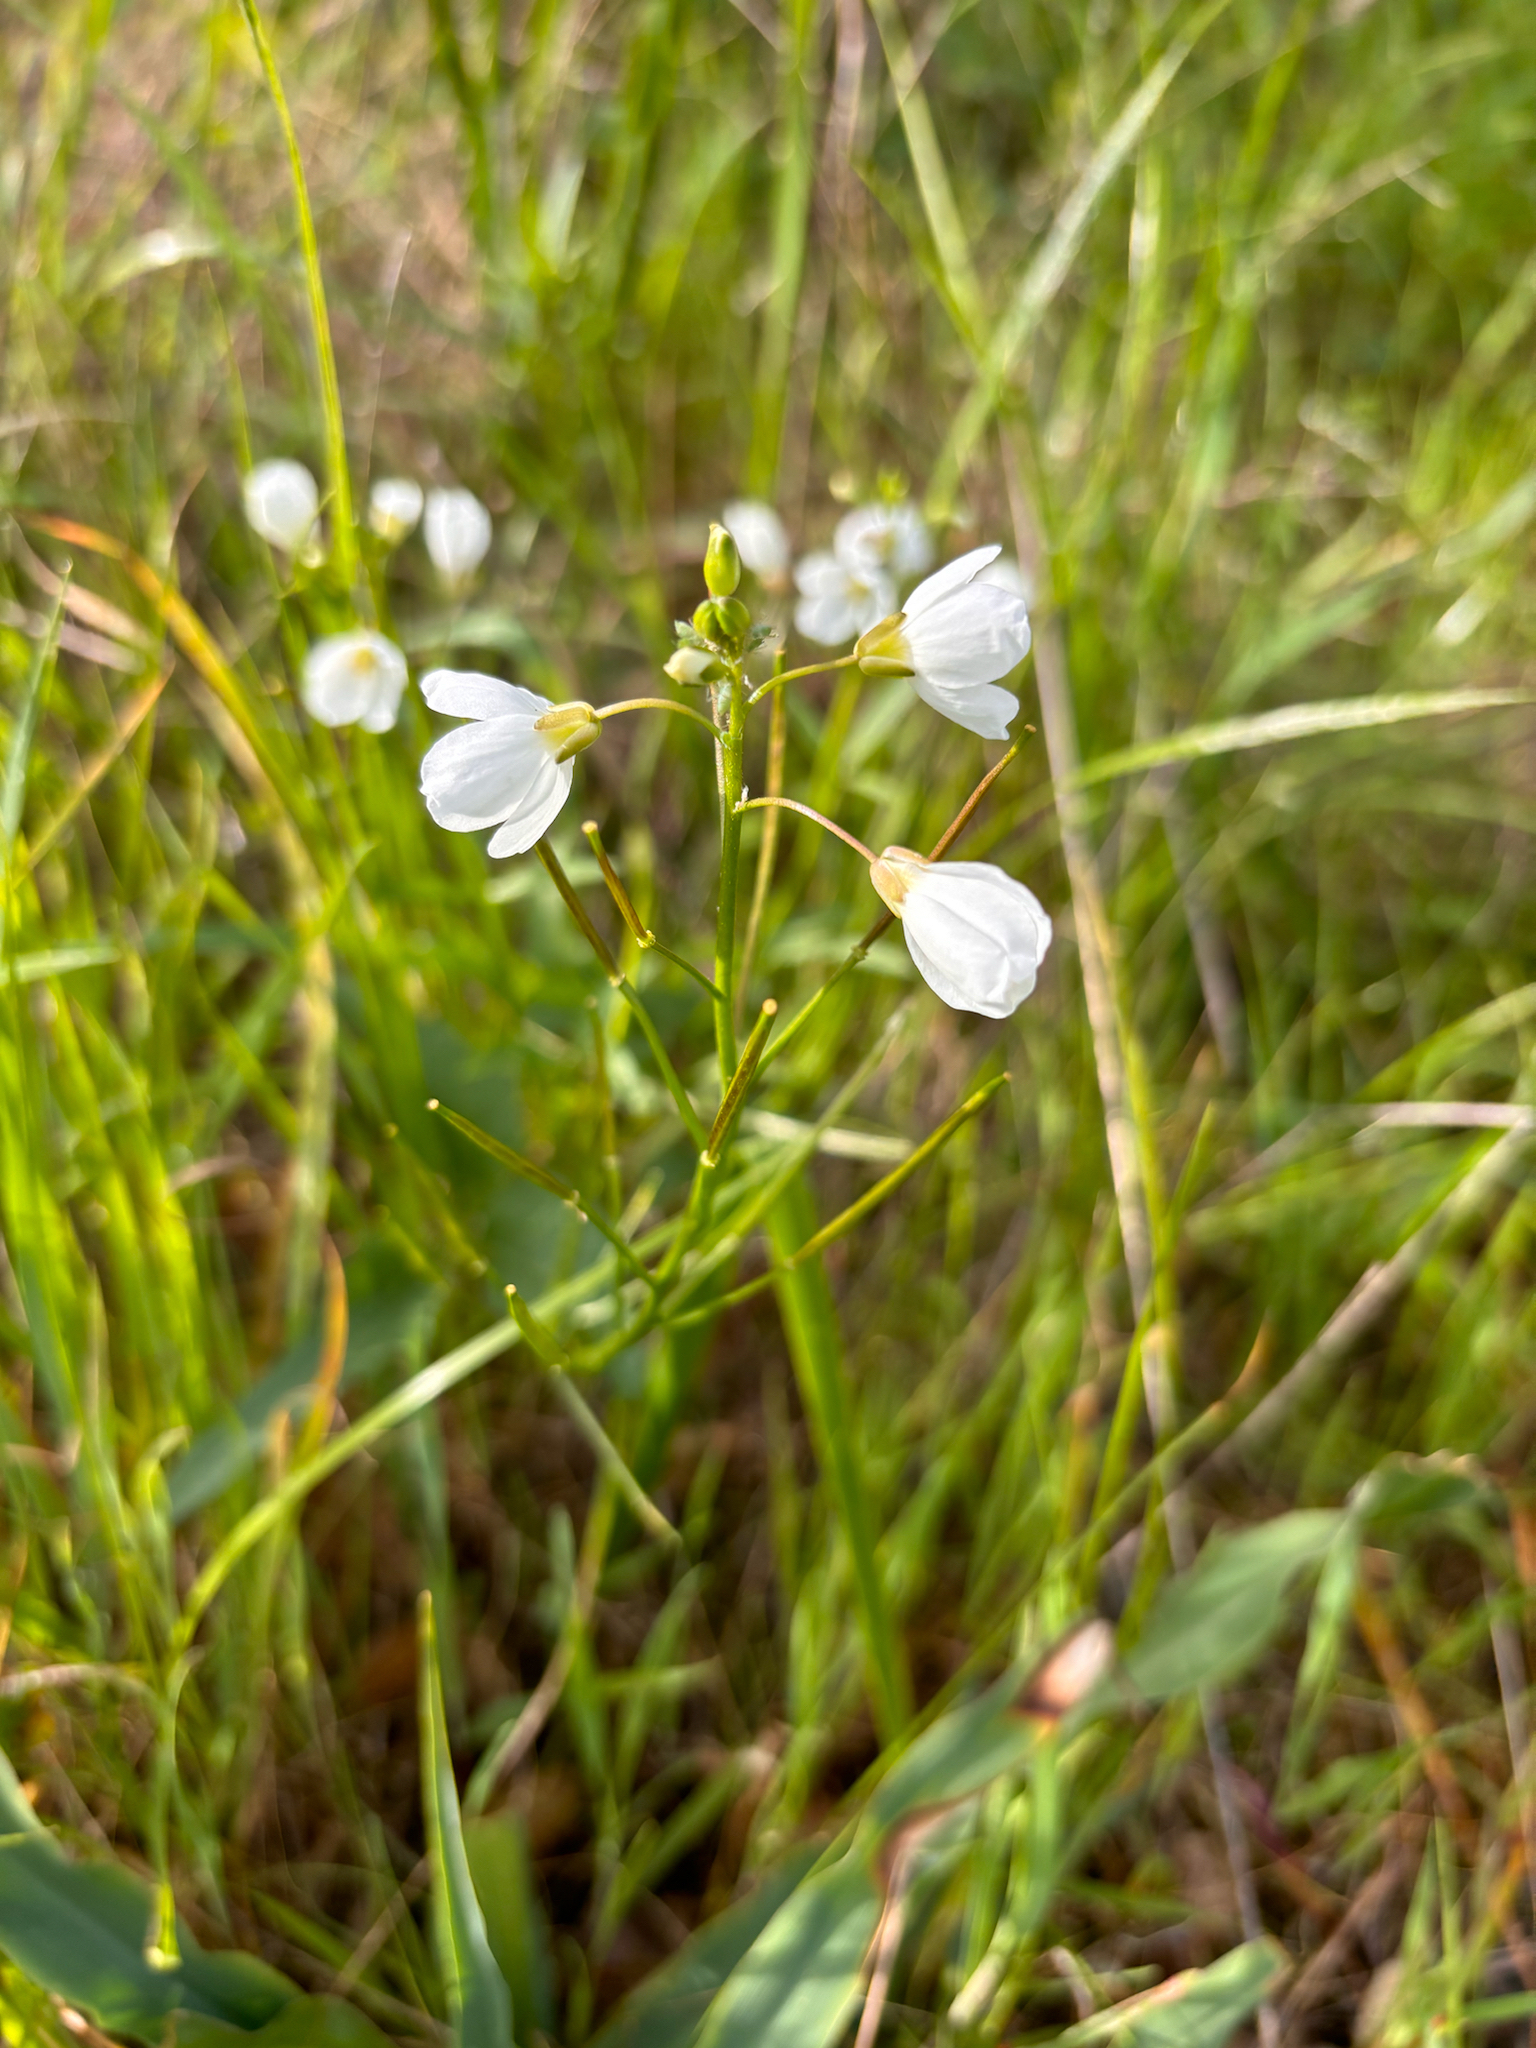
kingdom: Plantae
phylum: Tracheophyta
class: Magnoliopsida
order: Brassicales
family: Brassicaceae
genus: Cardamine
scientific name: Cardamine californica
